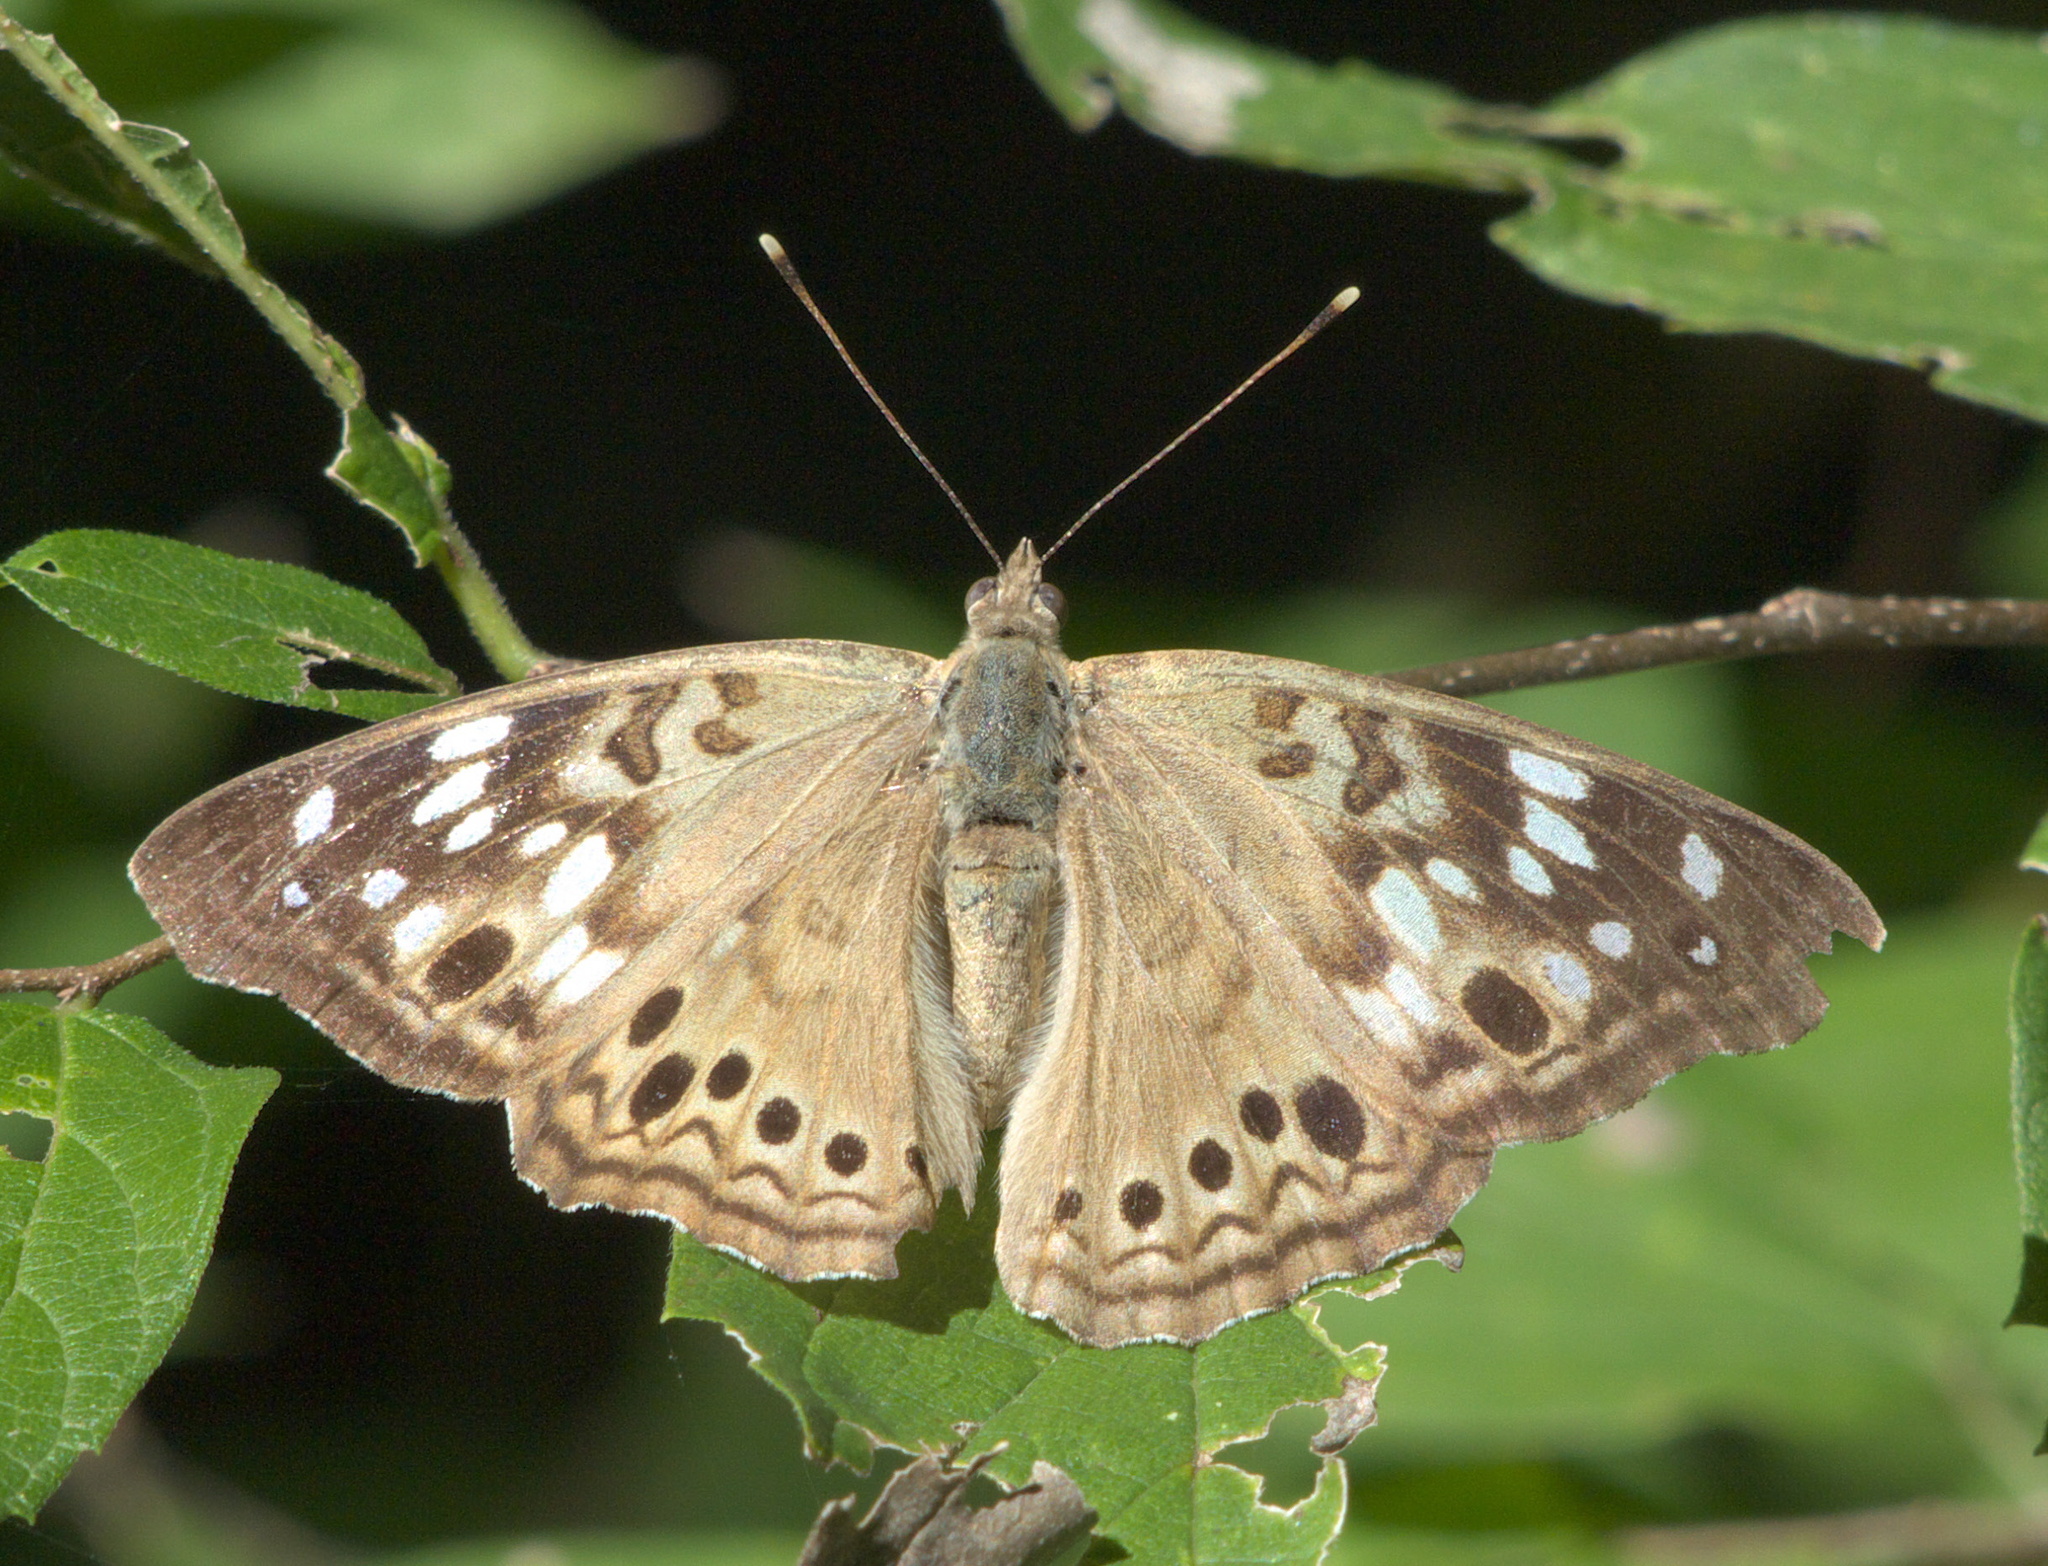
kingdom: Animalia
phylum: Arthropoda
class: Insecta
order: Lepidoptera
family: Nymphalidae
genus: Asterocampa
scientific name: Asterocampa celtis
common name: Hackberry emperor
